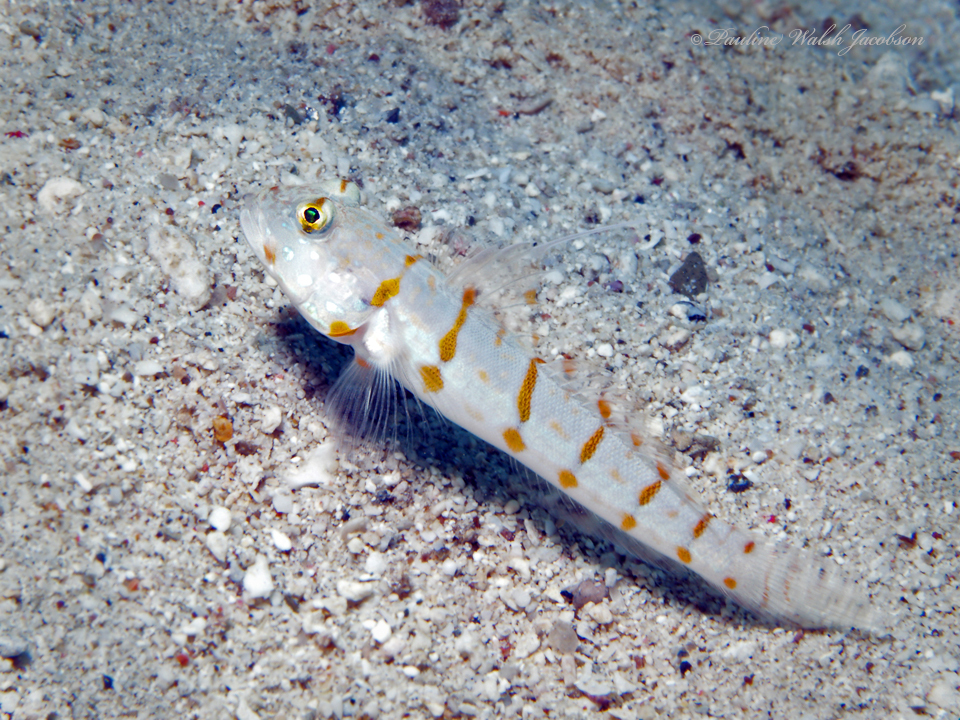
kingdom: Animalia
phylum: Chordata
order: Perciformes
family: Gobiidae
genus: Valenciennea
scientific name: Valenciennea puellaris
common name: Orange-dashed goby
